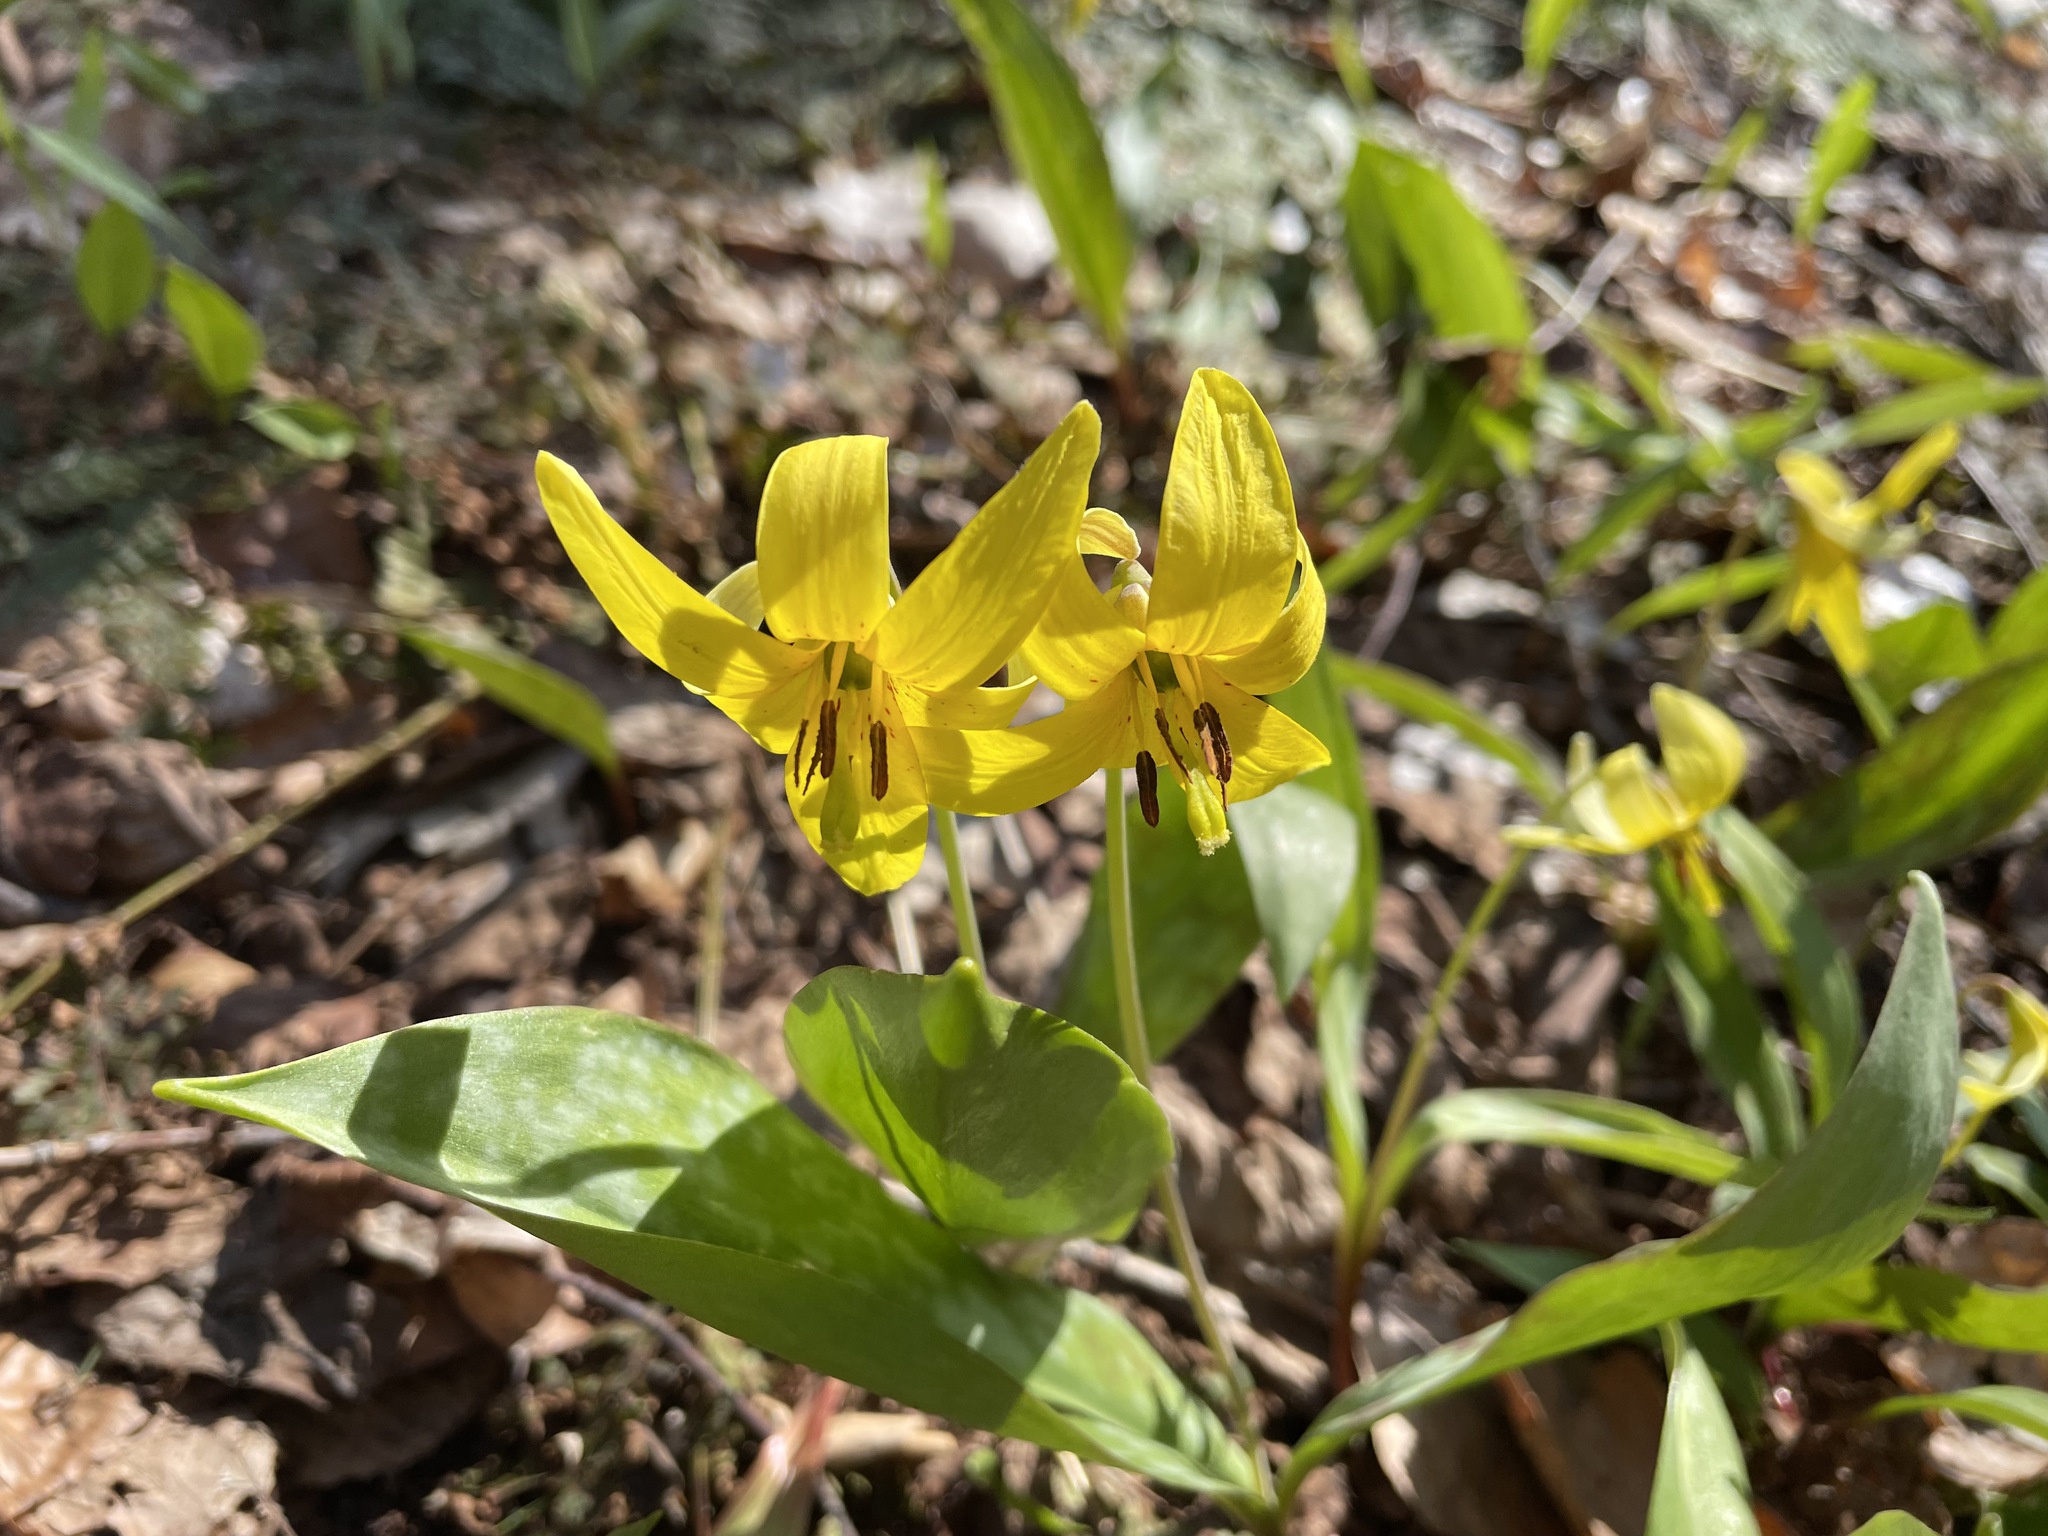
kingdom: Plantae
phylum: Tracheophyta
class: Liliopsida
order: Liliales
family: Liliaceae
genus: Erythronium
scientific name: Erythronium americanum
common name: Yellow adder's-tongue
